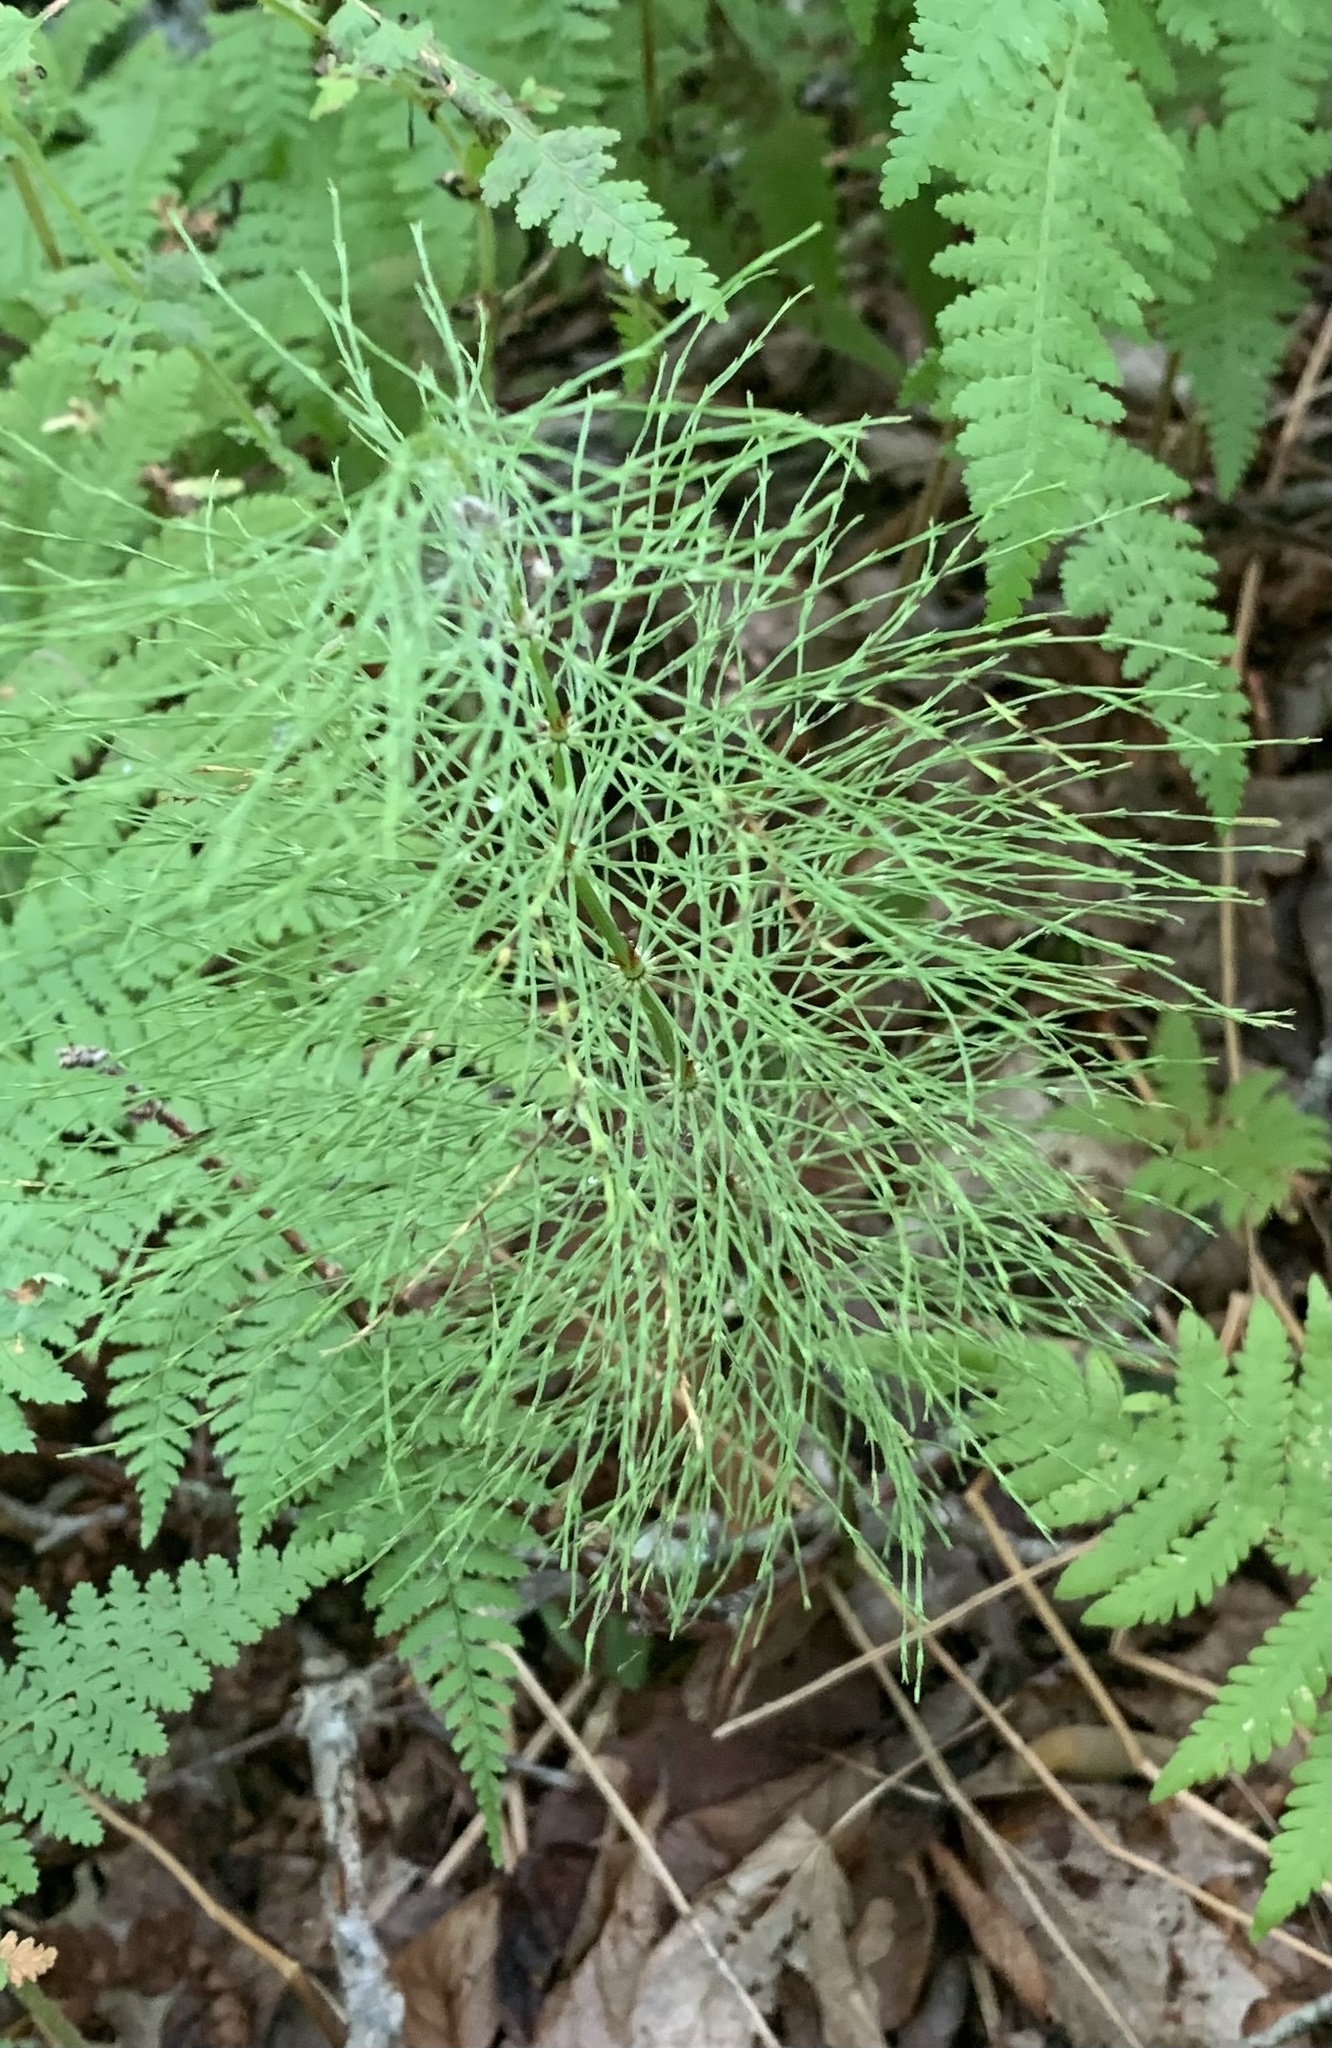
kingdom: Plantae
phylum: Tracheophyta
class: Polypodiopsida
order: Equisetales
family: Equisetaceae
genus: Equisetum
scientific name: Equisetum sylvaticum
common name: Wood horsetail
